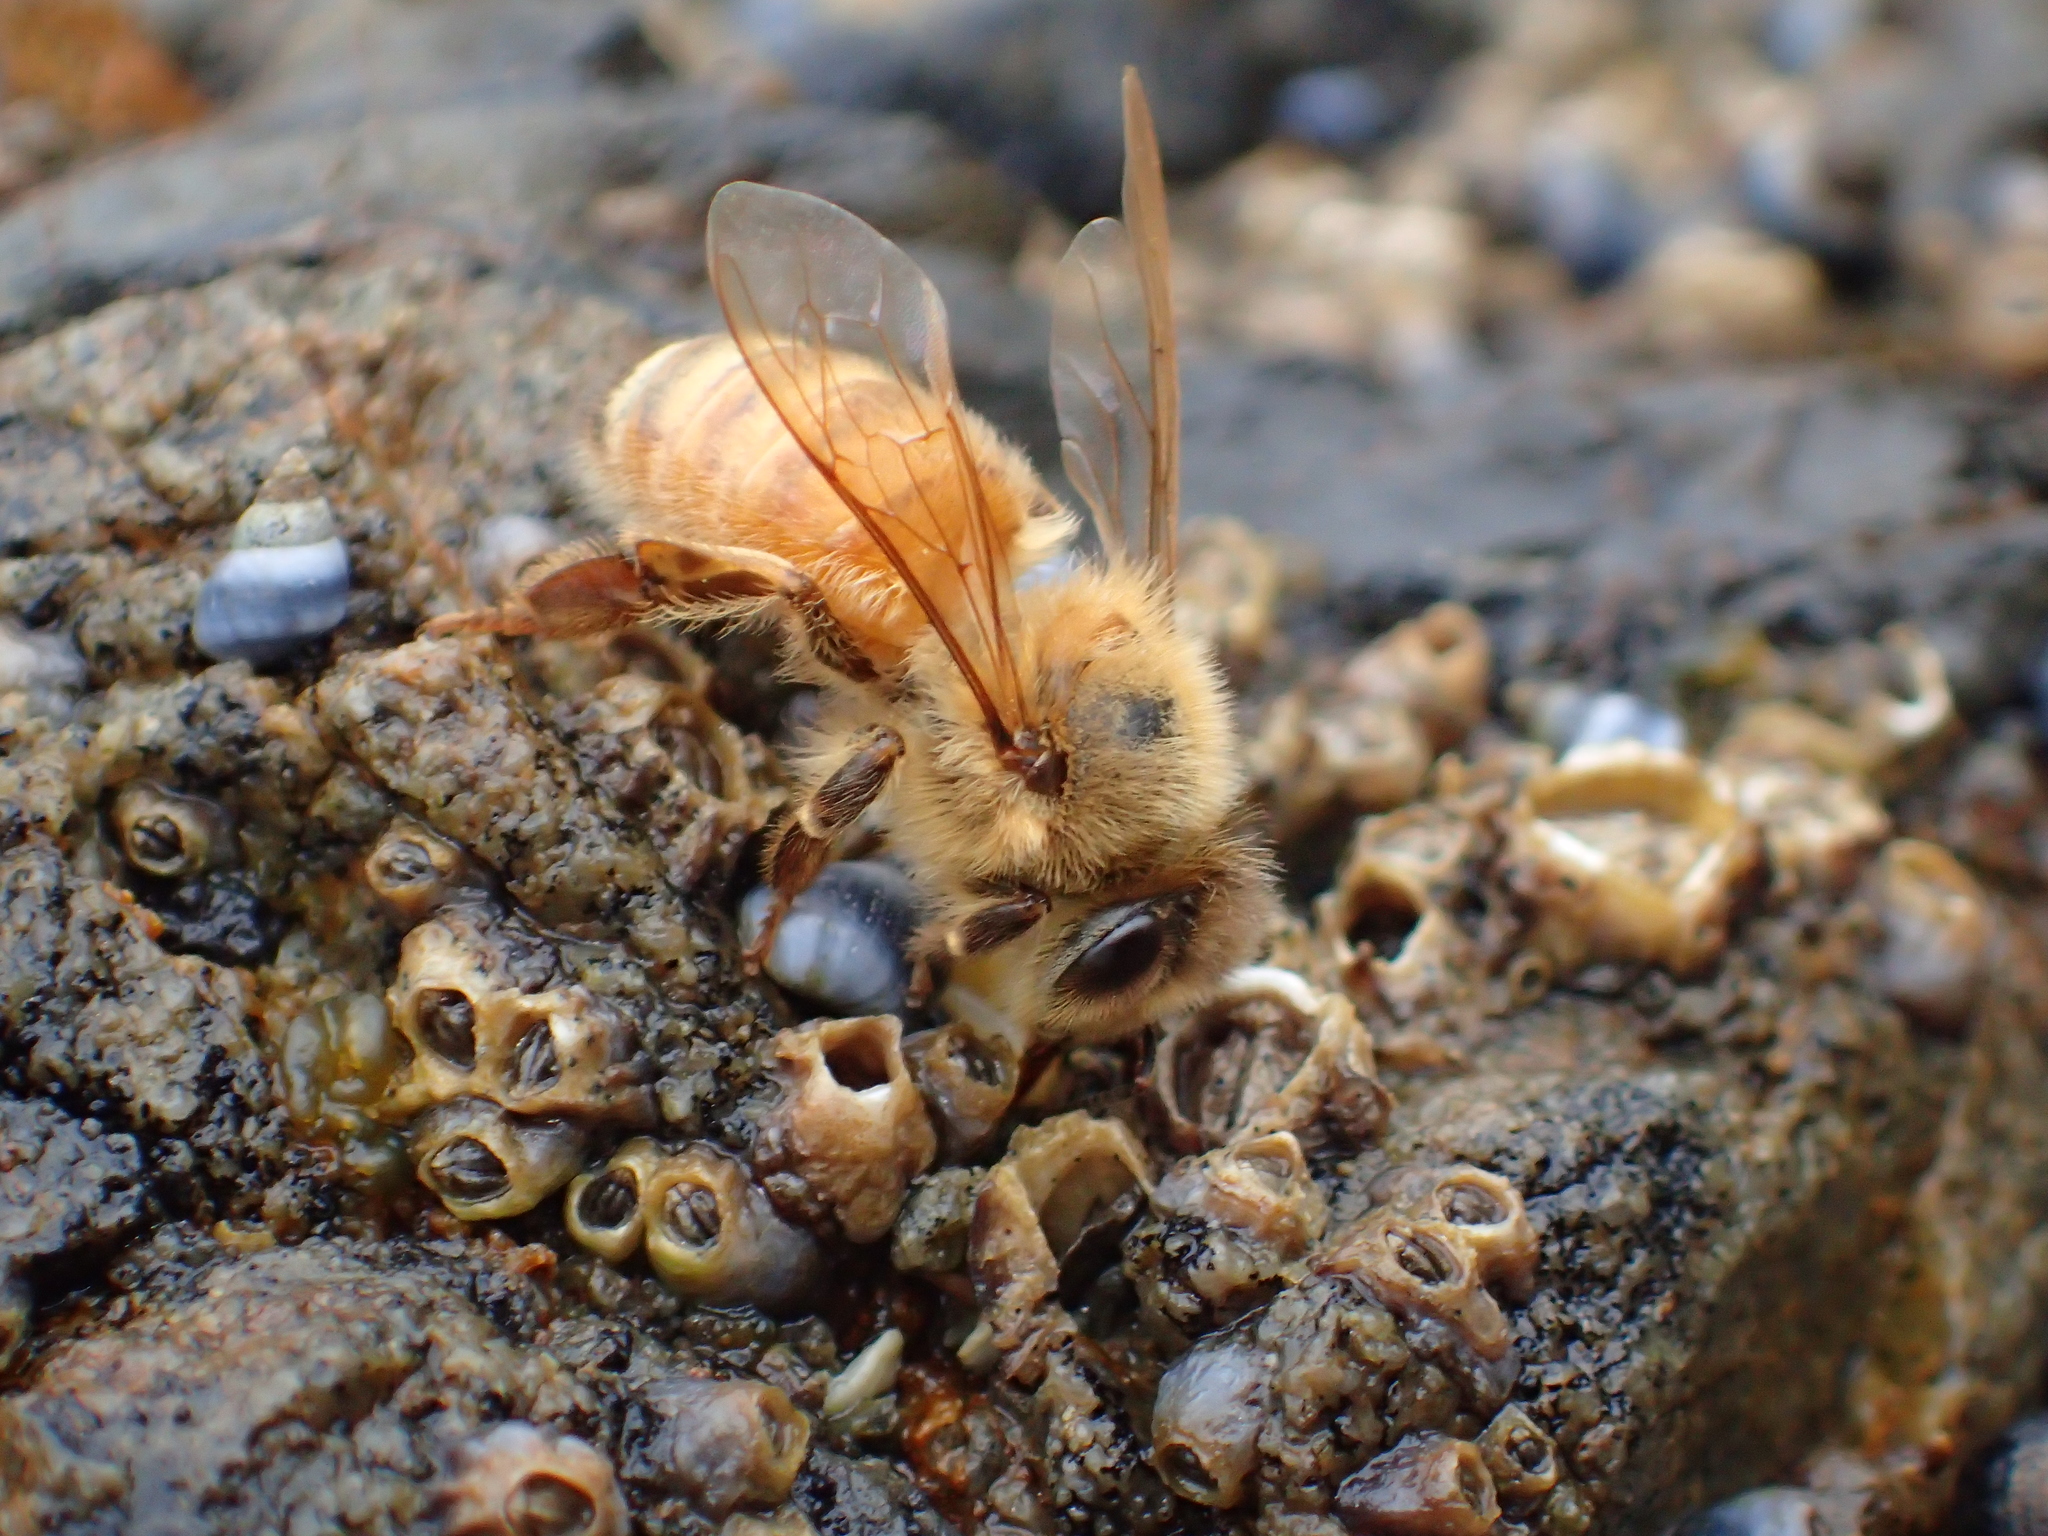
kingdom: Animalia
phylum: Arthropoda
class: Insecta
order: Hymenoptera
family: Apidae
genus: Apis
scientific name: Apis mellifera
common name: Honey bee
